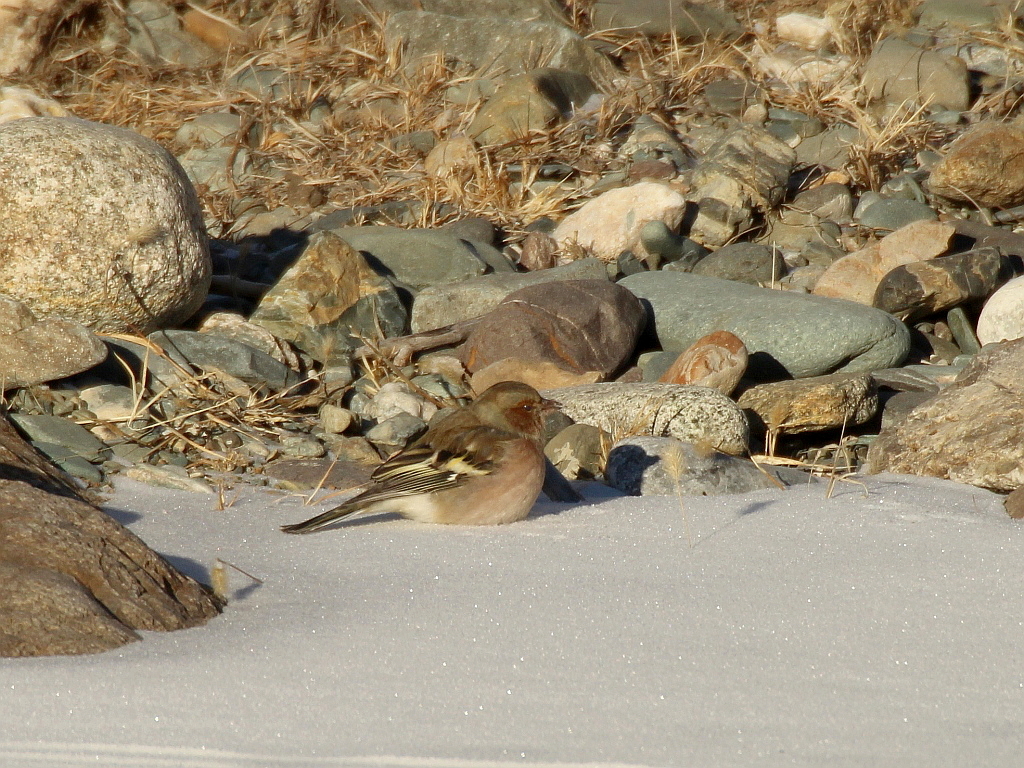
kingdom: Animalia
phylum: Chordata
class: Aves
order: Passeriformes
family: Fringillidae
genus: Fringilla
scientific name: Fringilla coelebs
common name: Common chaffinch
